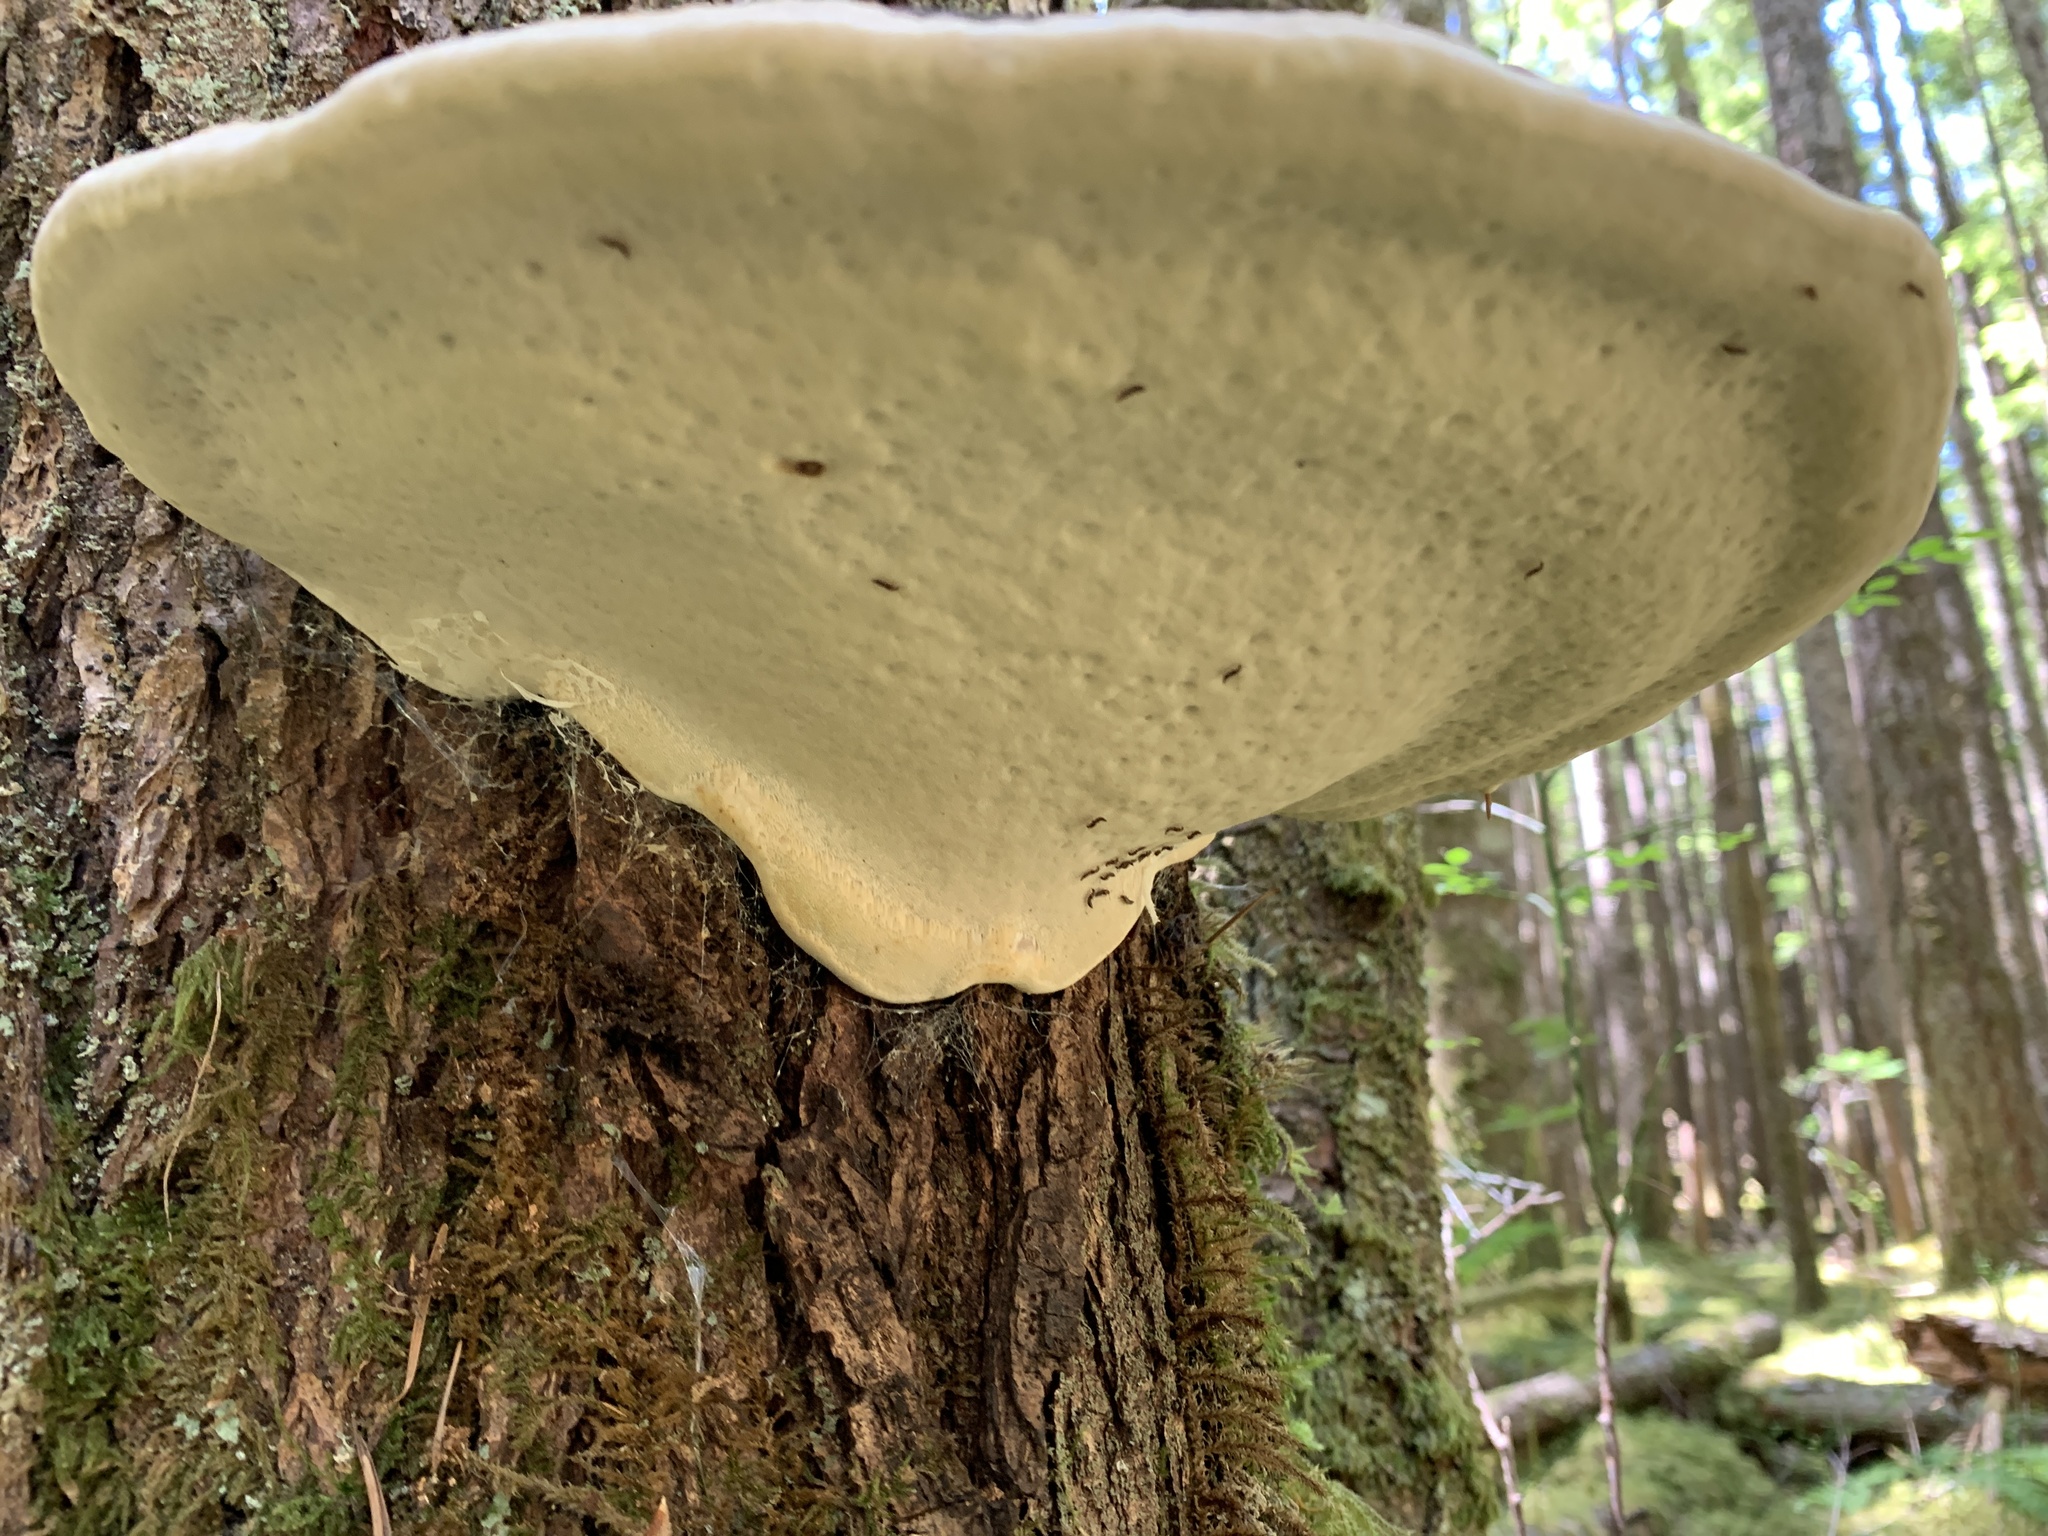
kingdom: Fungi
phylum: Basidiomycota
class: Agaricomycetes
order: Polyporales
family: Fomitopsidaceae
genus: Fomitopsis
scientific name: Fomitopsis mounceae
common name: Northern red belt
